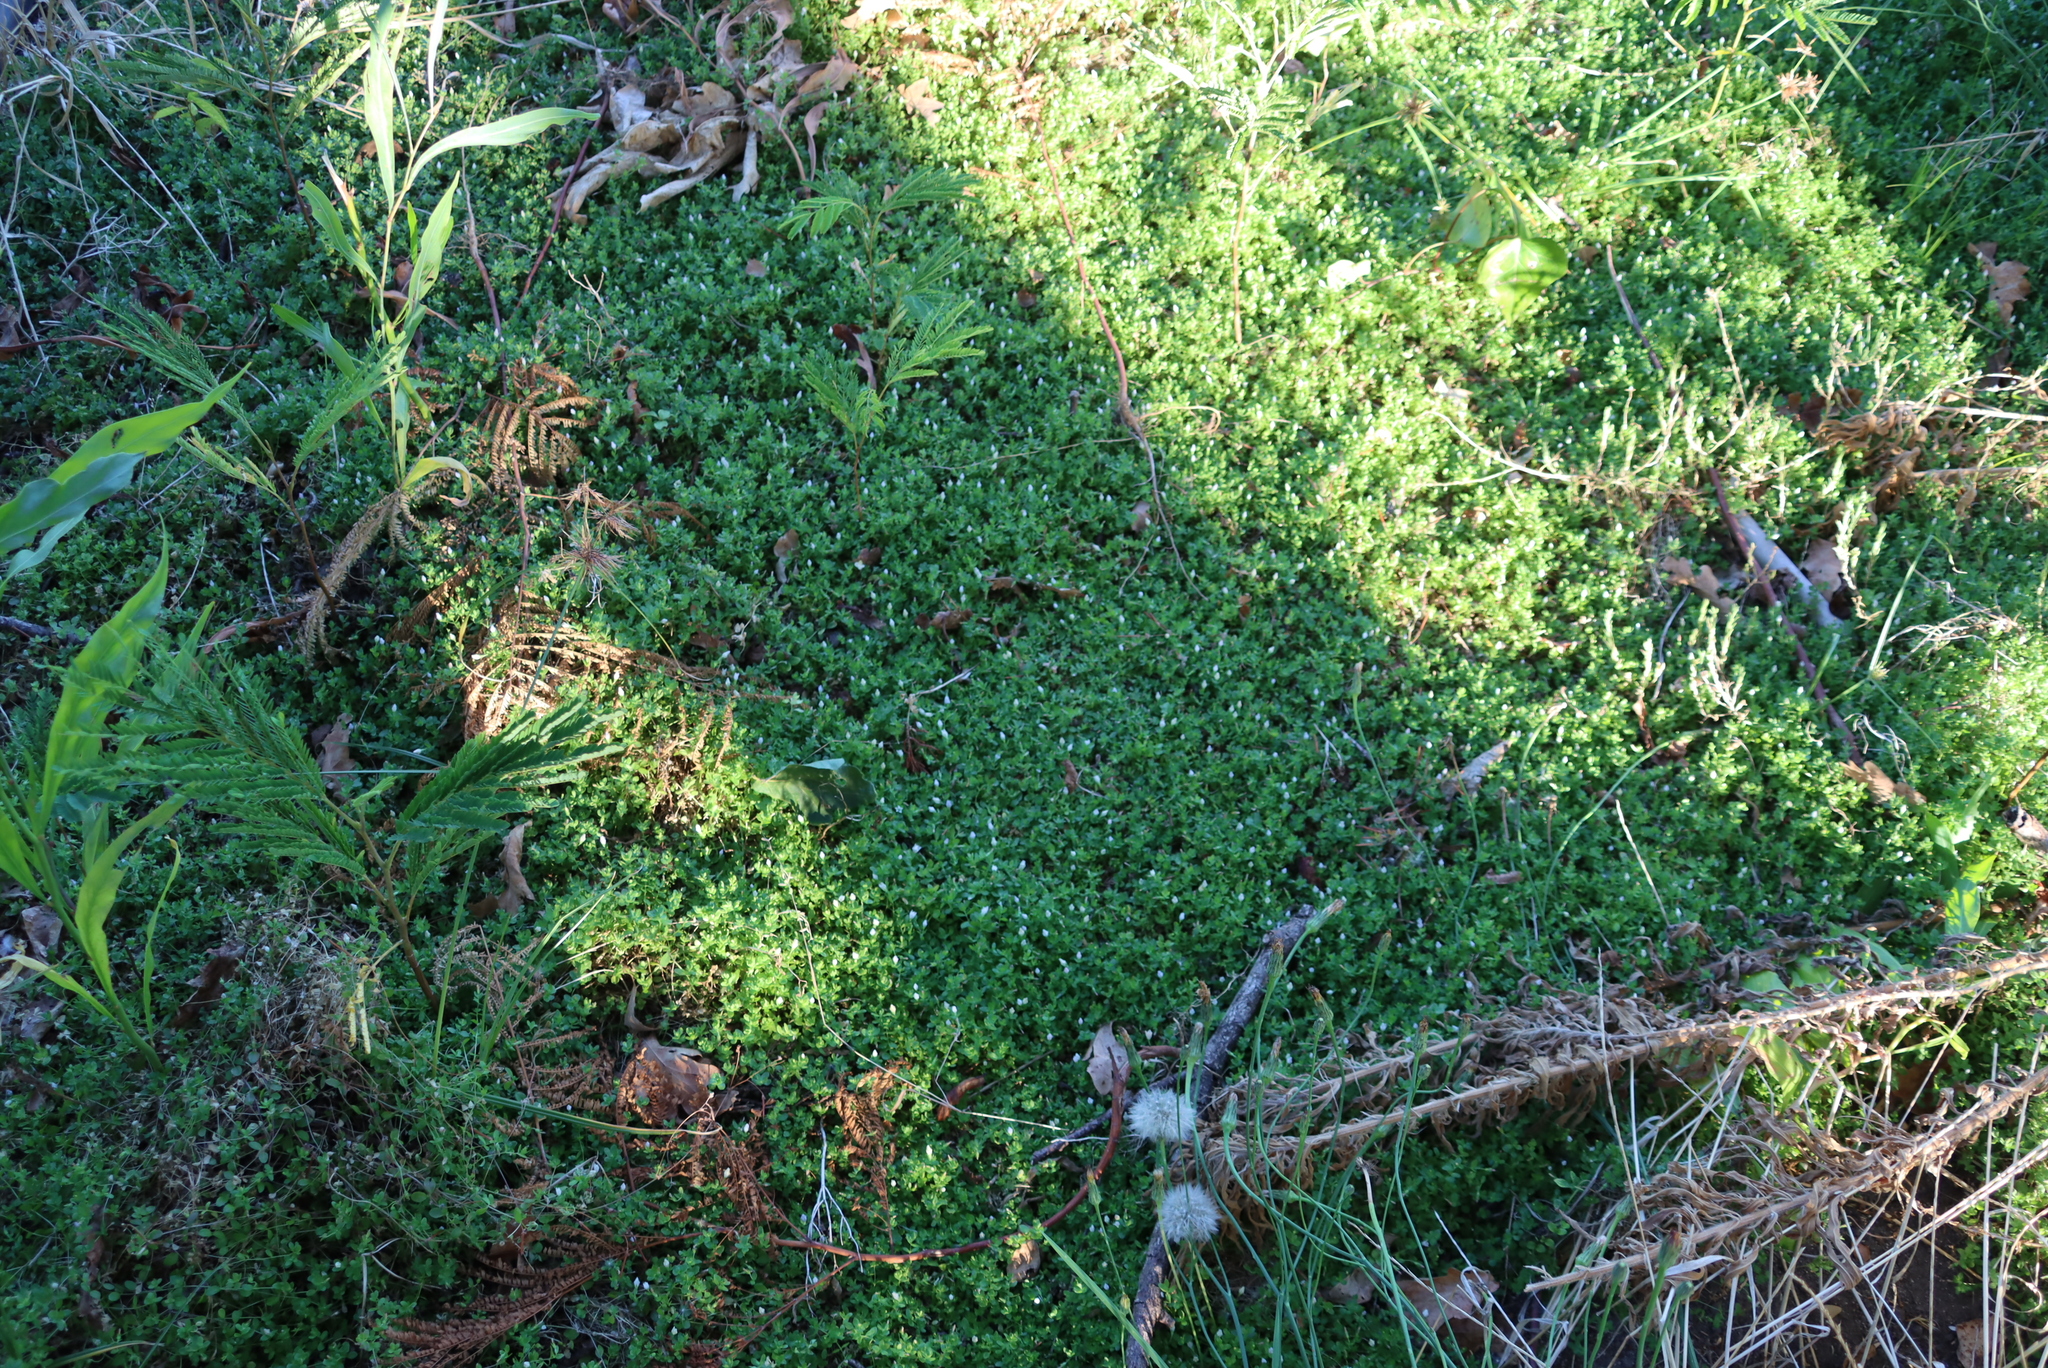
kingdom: Plantae
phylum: Tracheophyta
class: Magnoliopsida
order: Asterales
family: Campanulaceae
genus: Wahlenbergia
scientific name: Wahlenbergia procumbens
